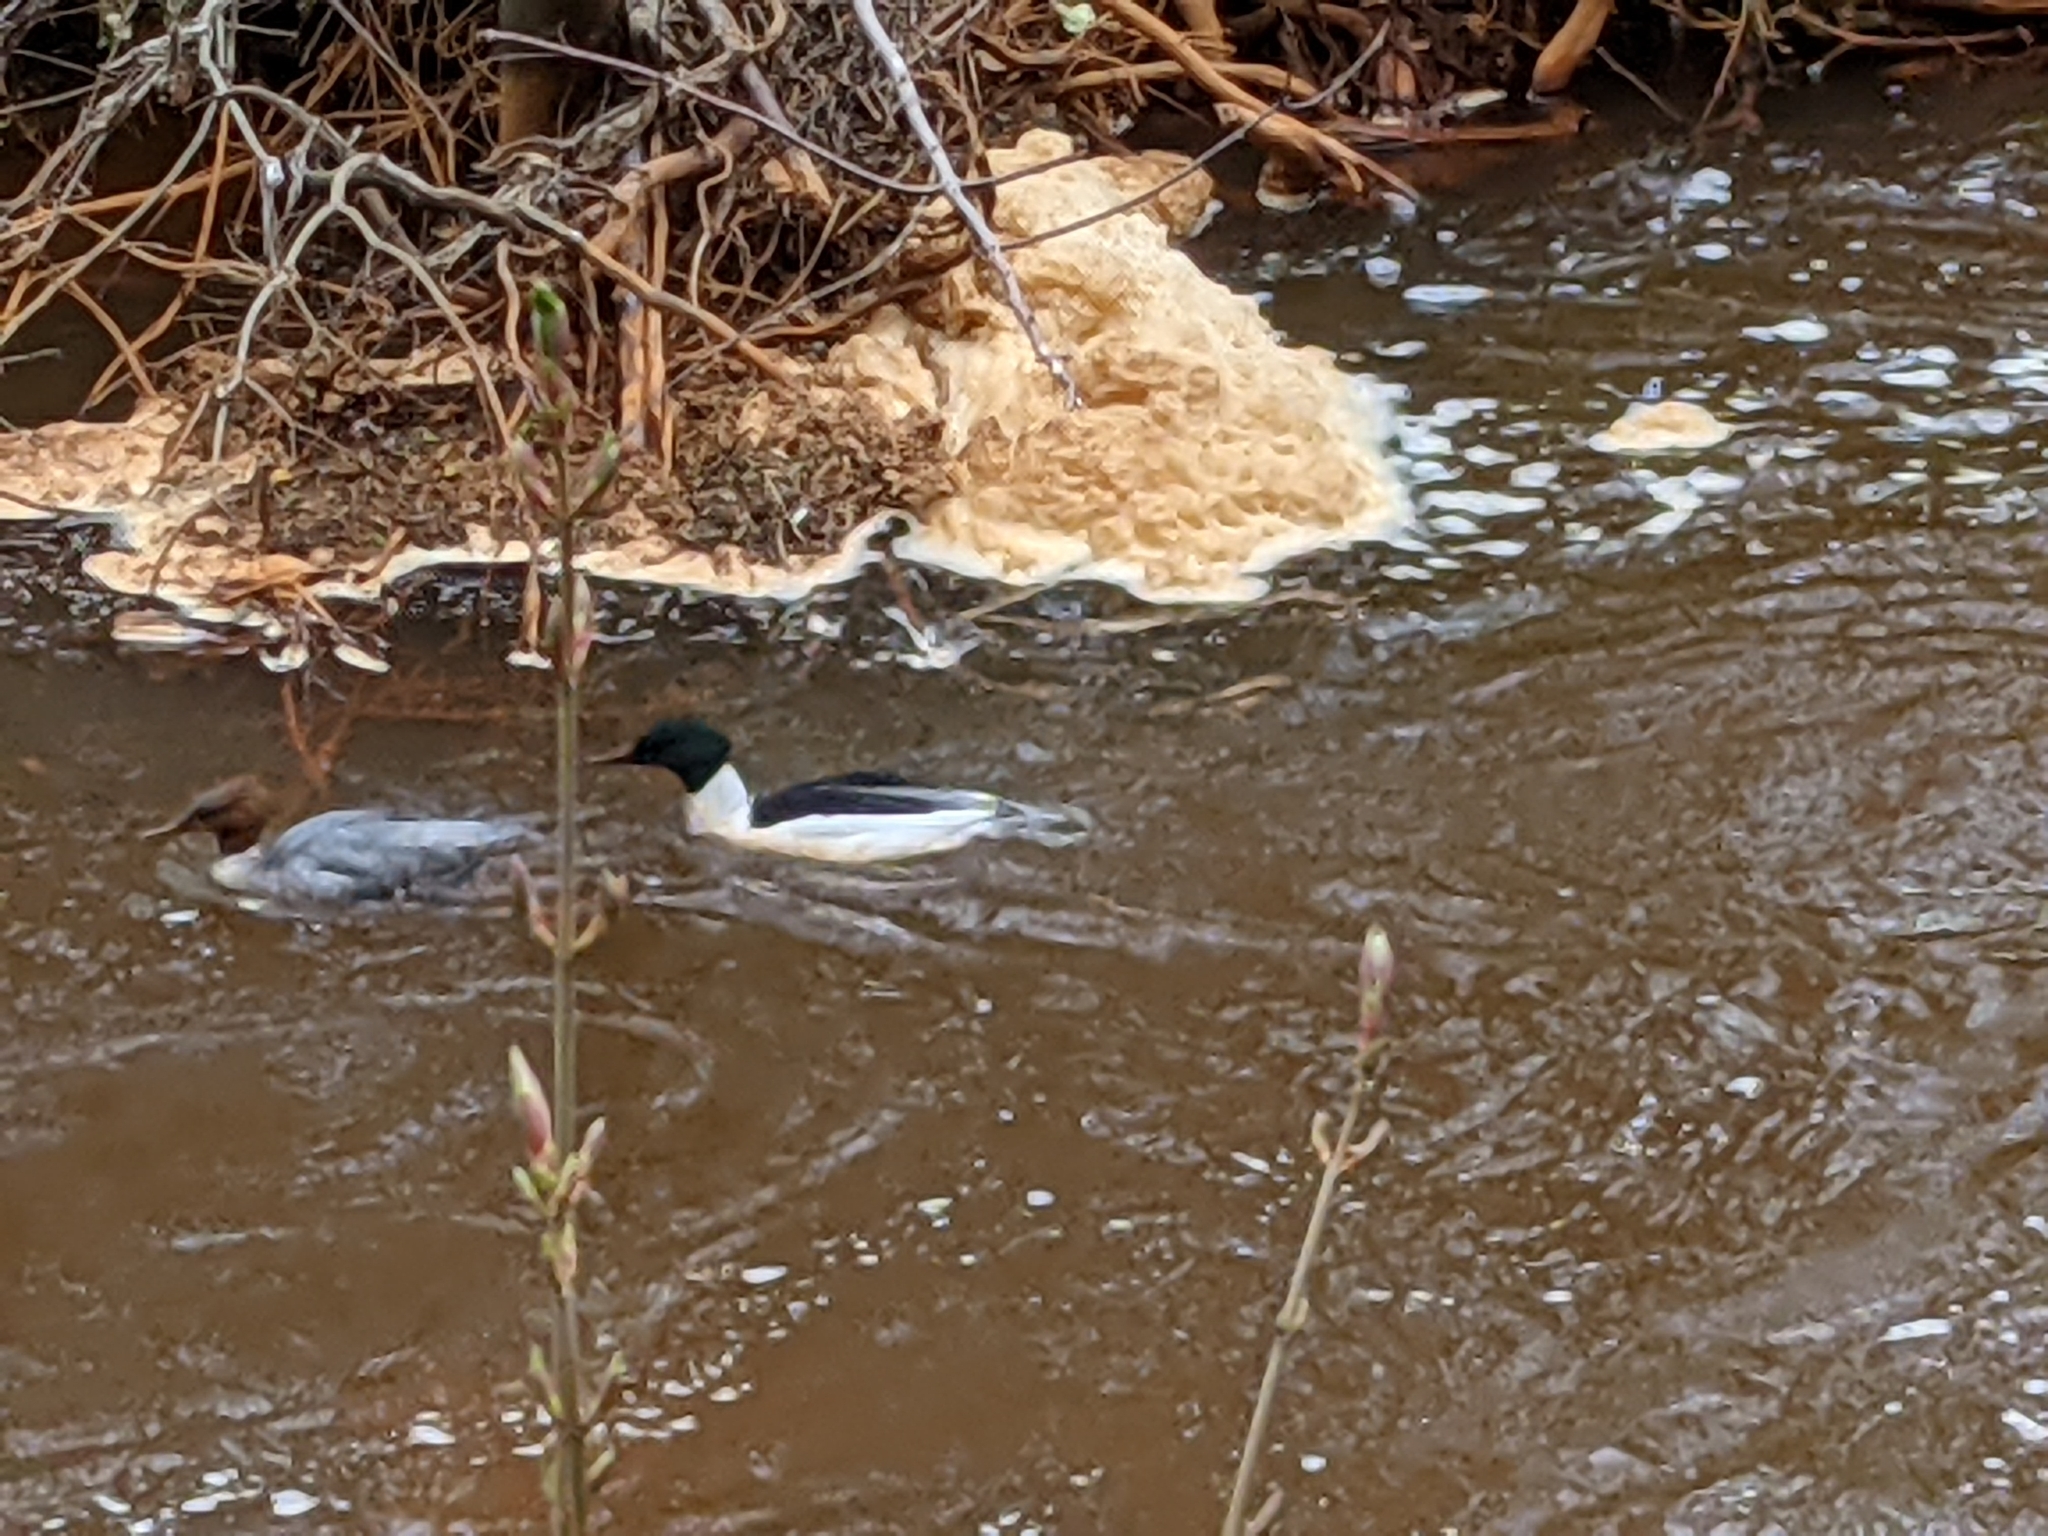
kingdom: Animalia
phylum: Chordata
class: Aves
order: Anseriformes
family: Anatidae
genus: Mergus
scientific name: Mergus merganser
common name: Common merganser
